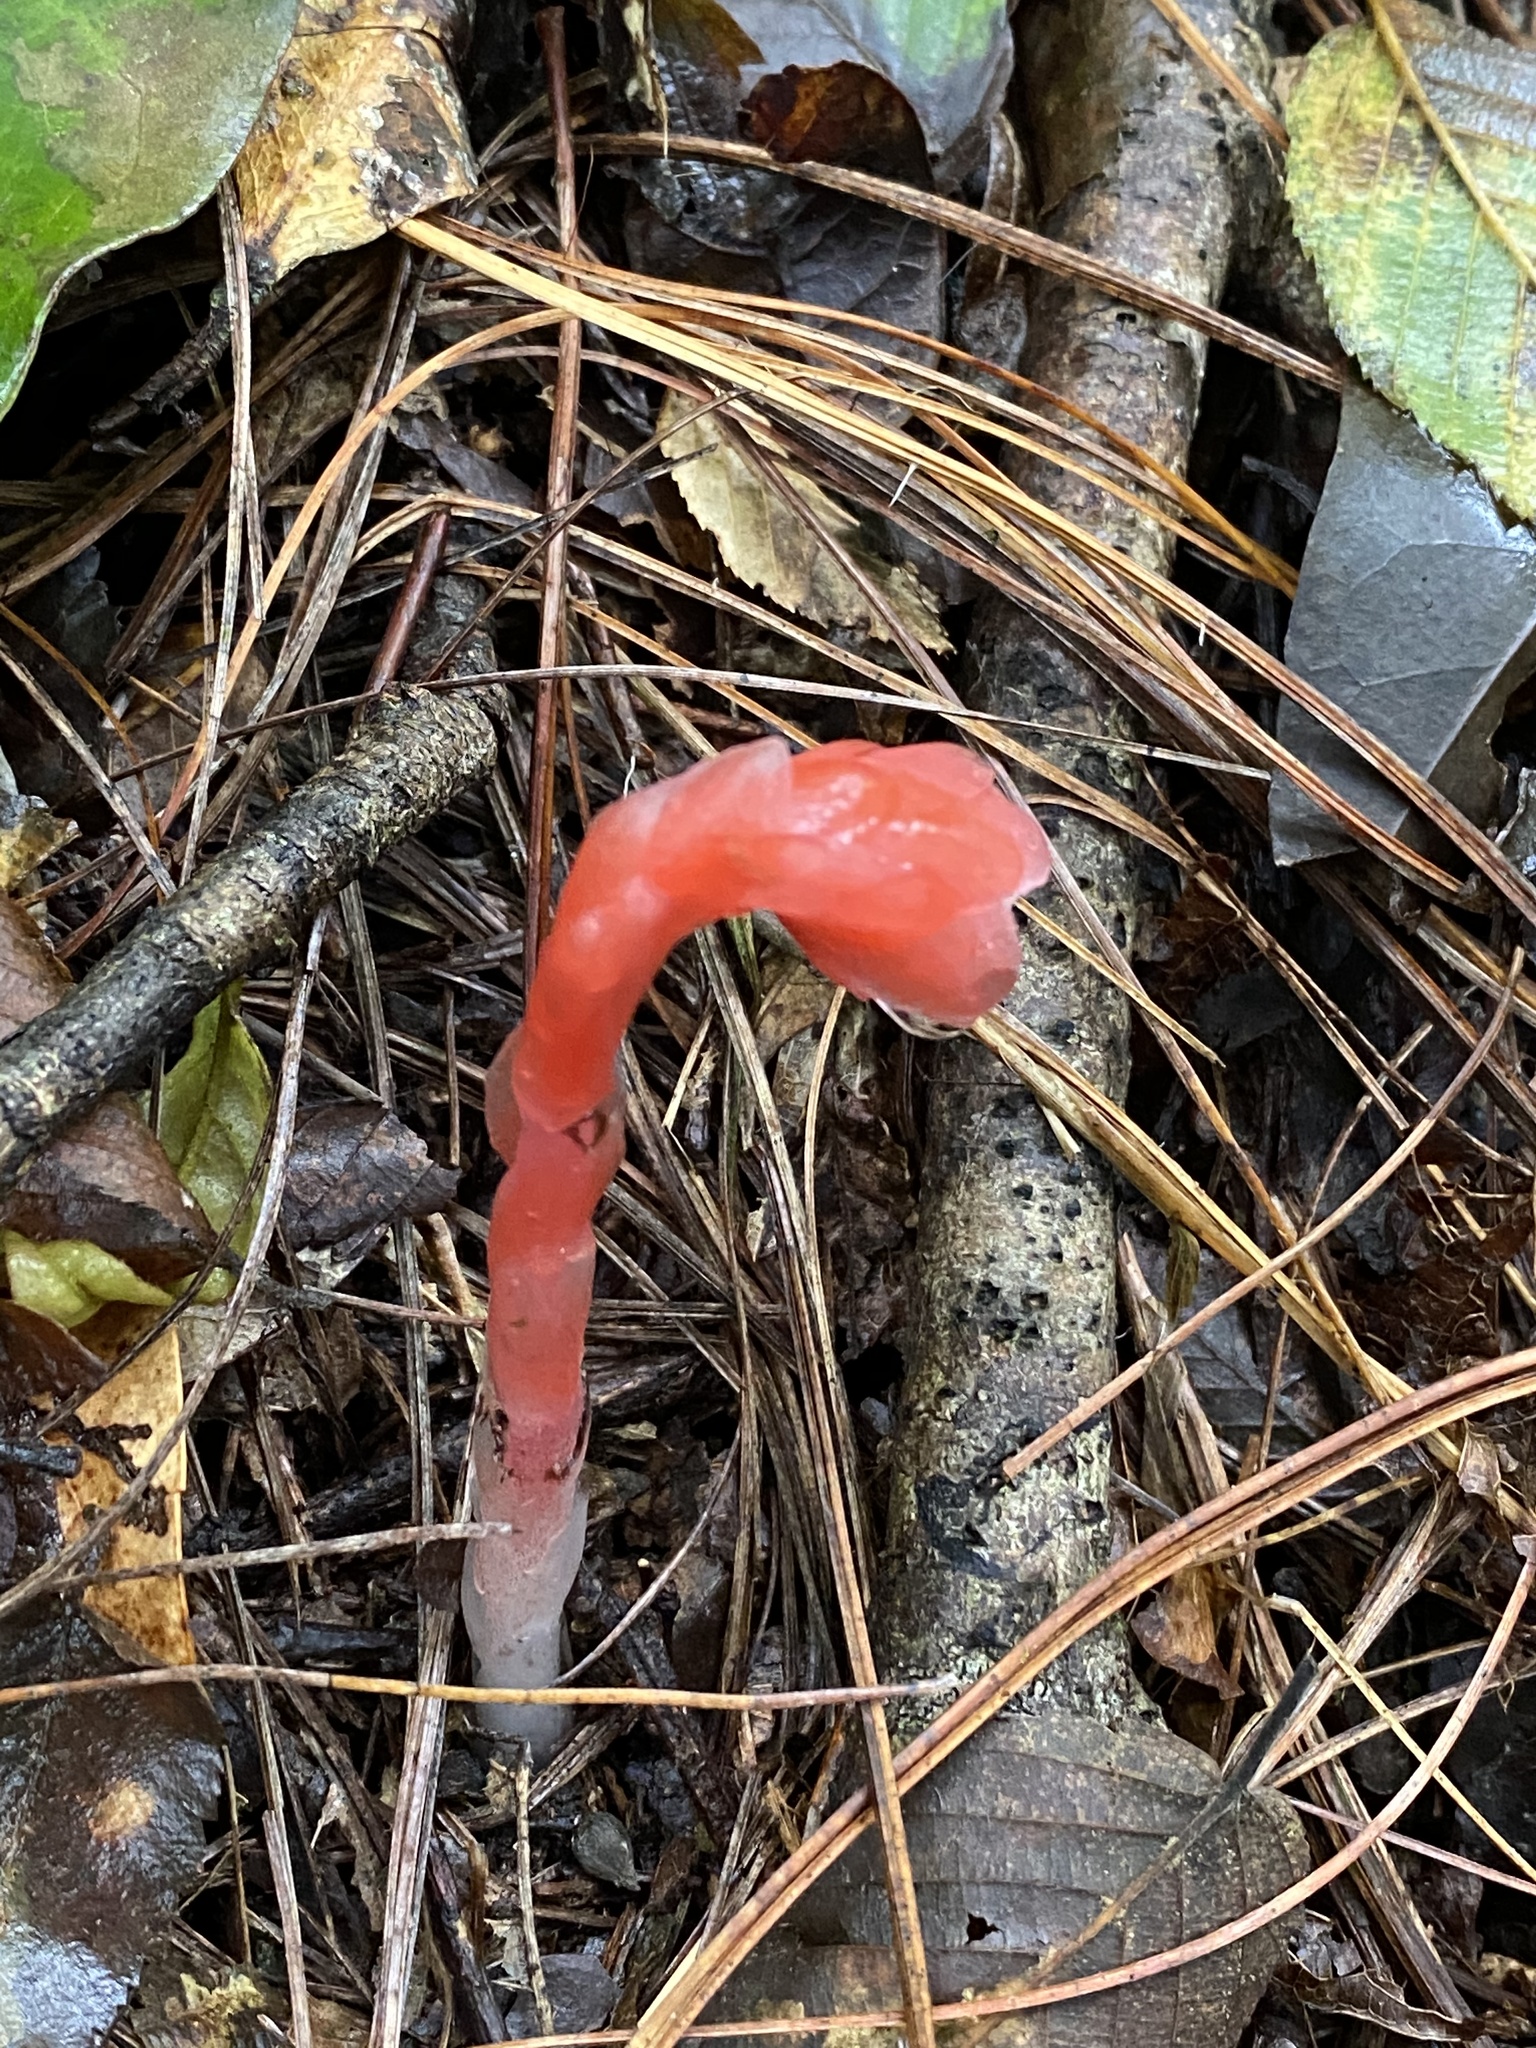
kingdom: Plantae
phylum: Tracheophyta
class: Magnoliopsida
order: Ericales
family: Ericaceae
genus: Monotropa
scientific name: Monotropa coccinea
